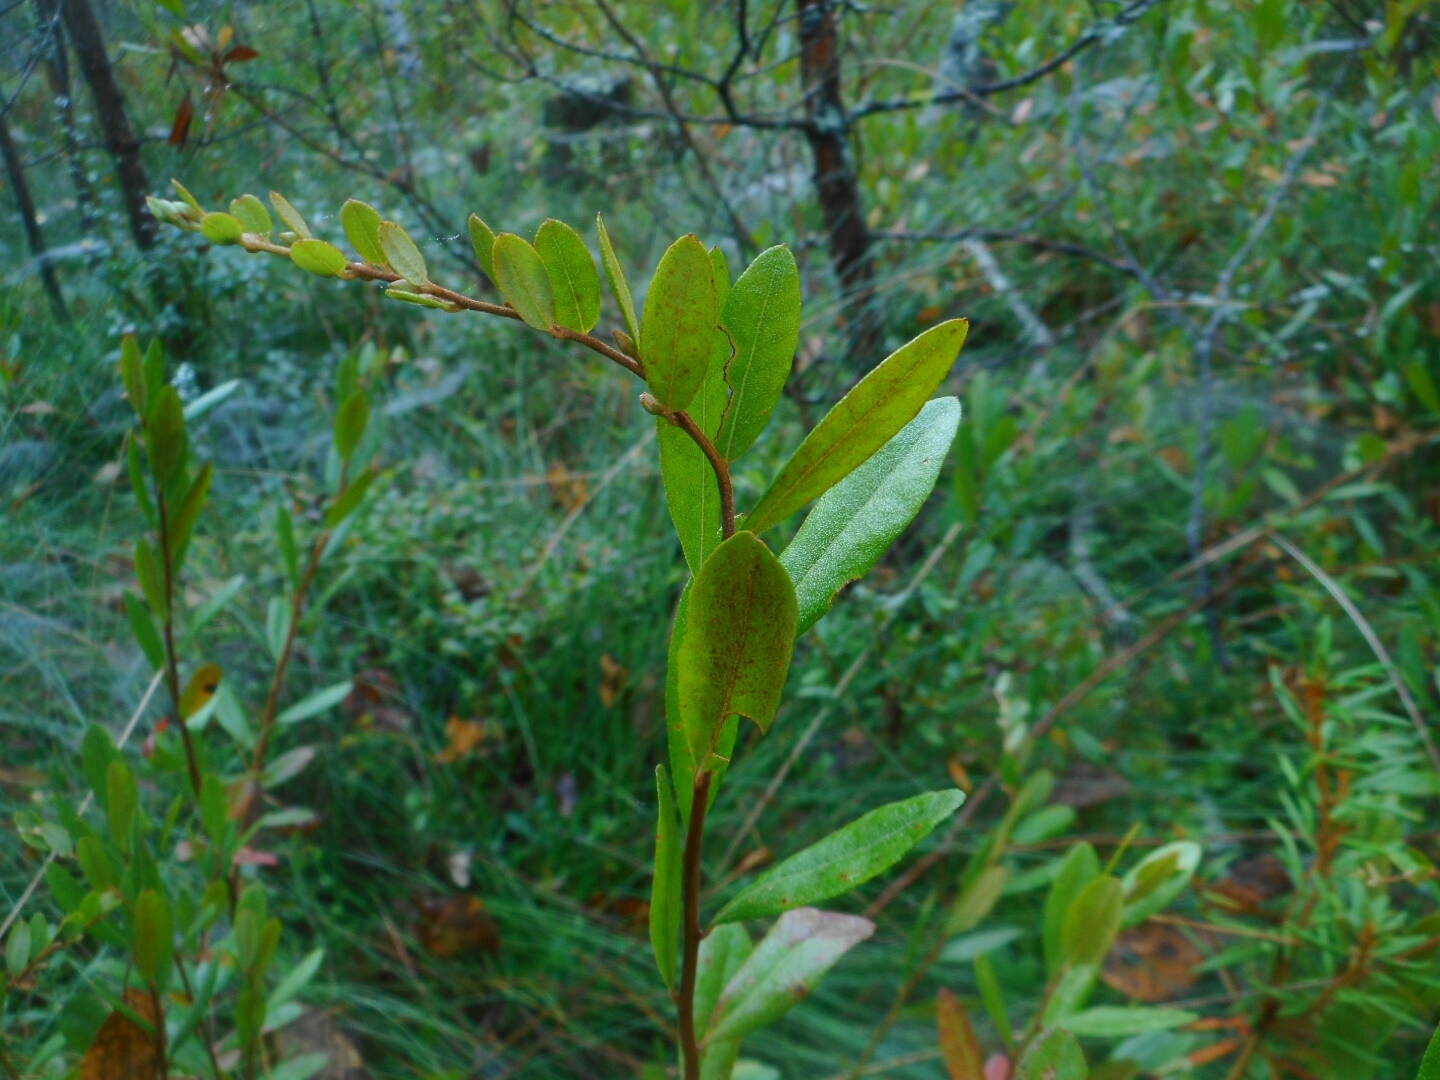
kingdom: Plantae
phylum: Tracheophyta
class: Magnoliopsida
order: Ericales
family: Ericaceae
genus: Chamaedaphne
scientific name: Chamaedaphne calyculata
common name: Leatherleaf
